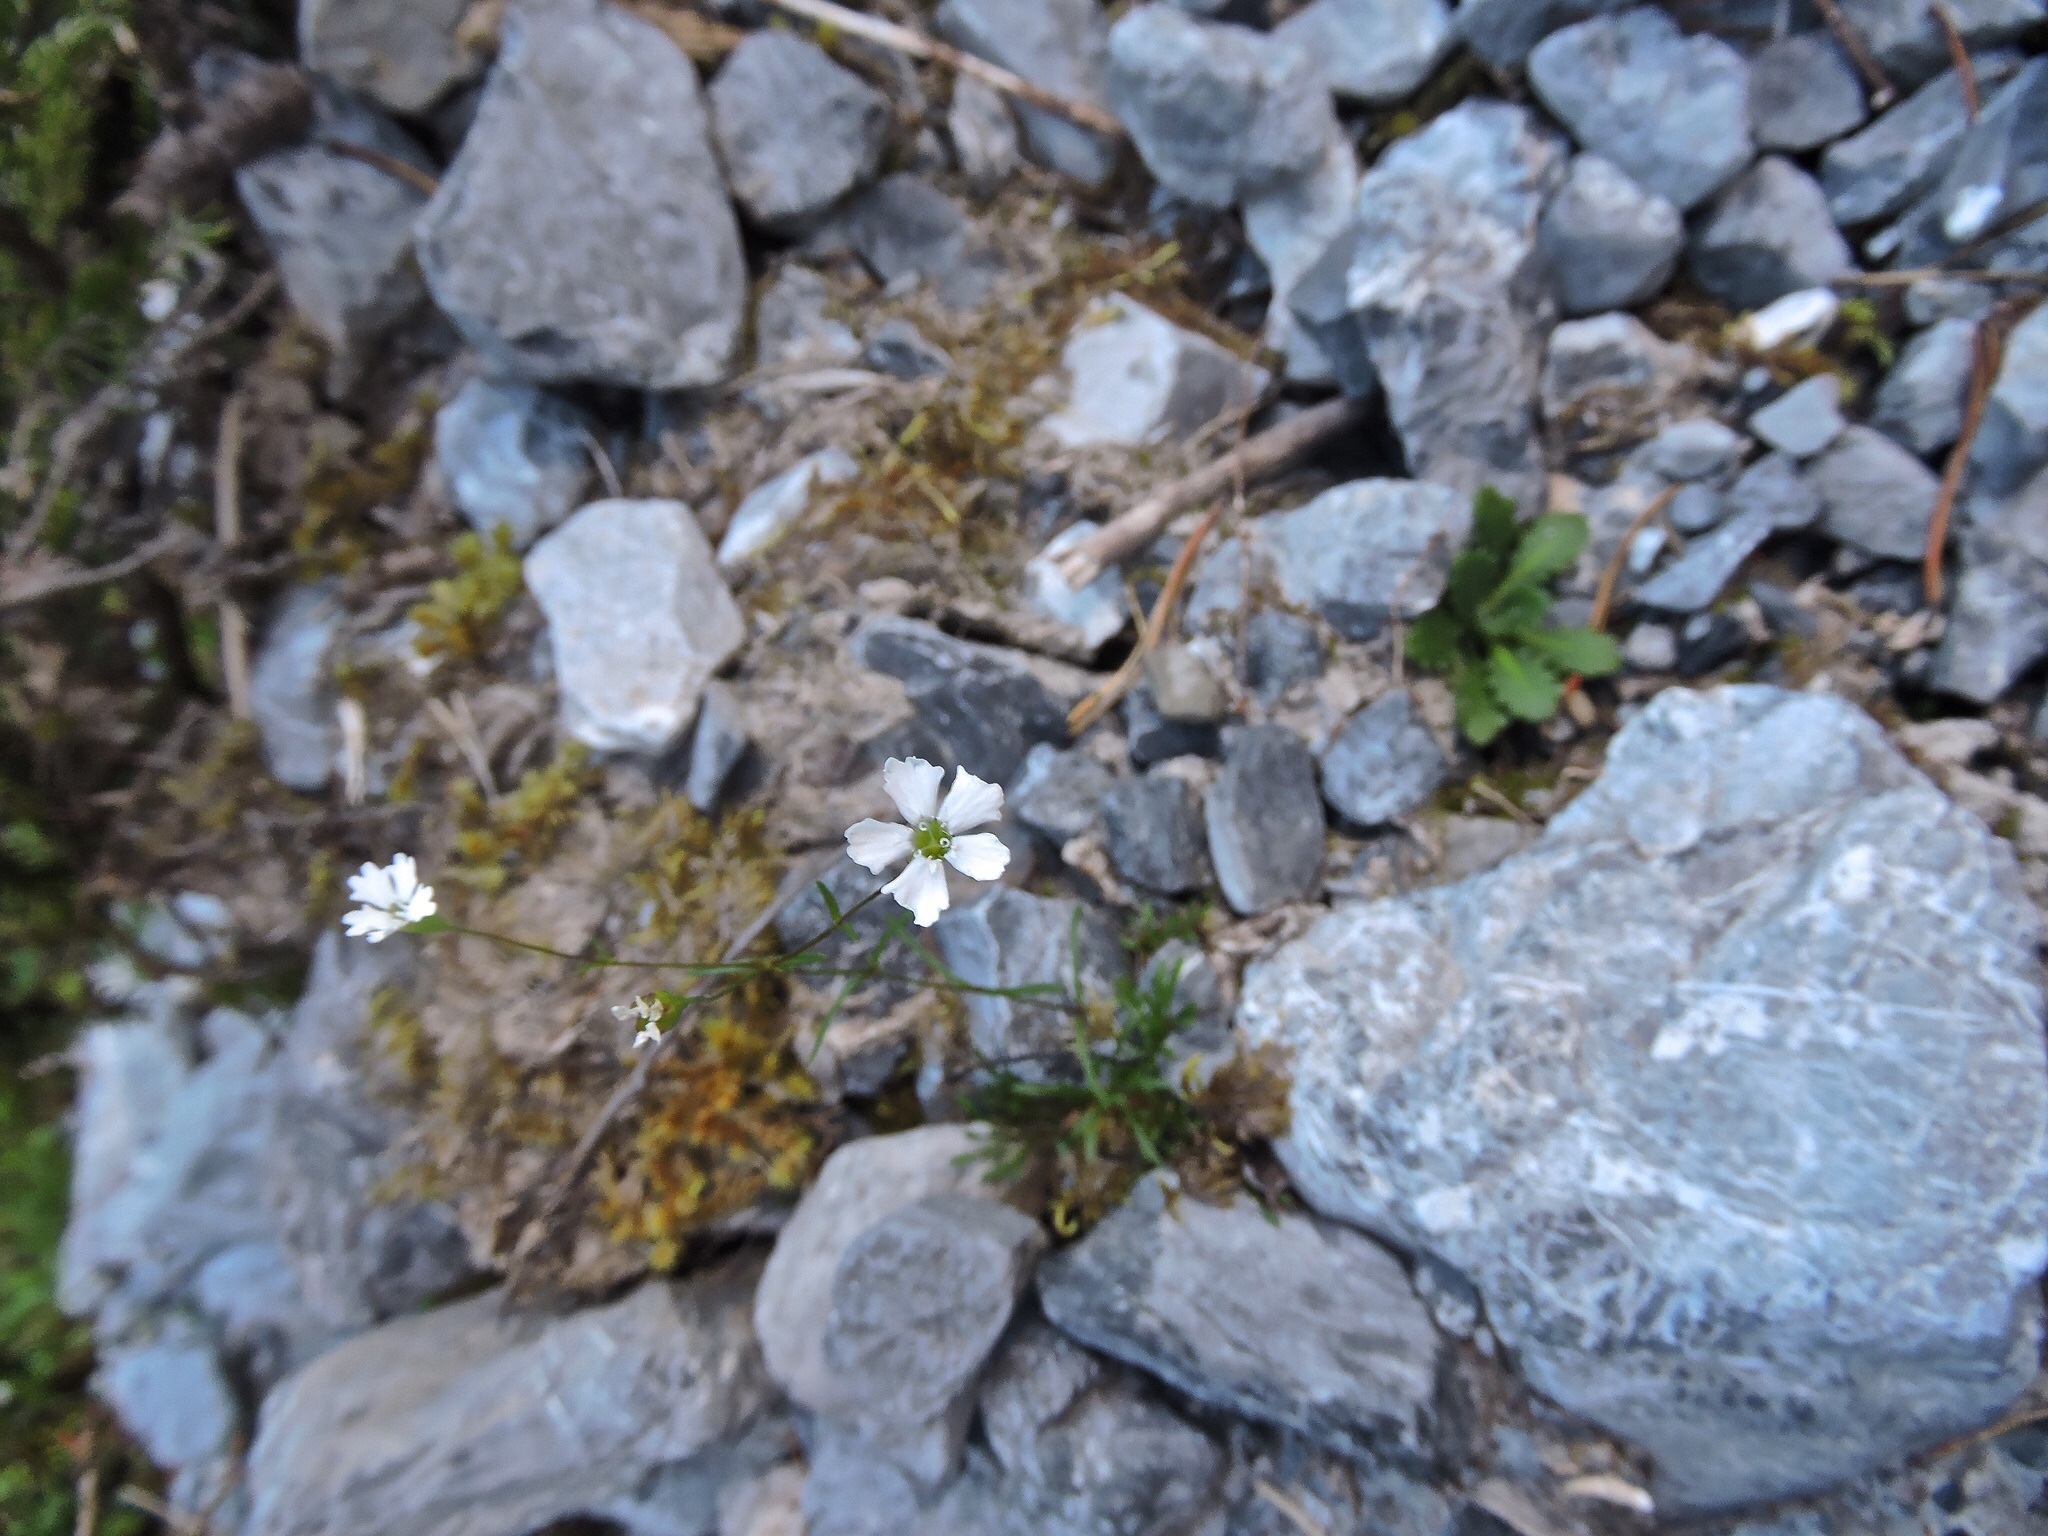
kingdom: Plantae
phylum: Tracheophyta
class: Magnoliopsida
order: Caryophyllales
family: Caryophyllaceae
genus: Heliosperma
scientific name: Heliosperma pusillum
